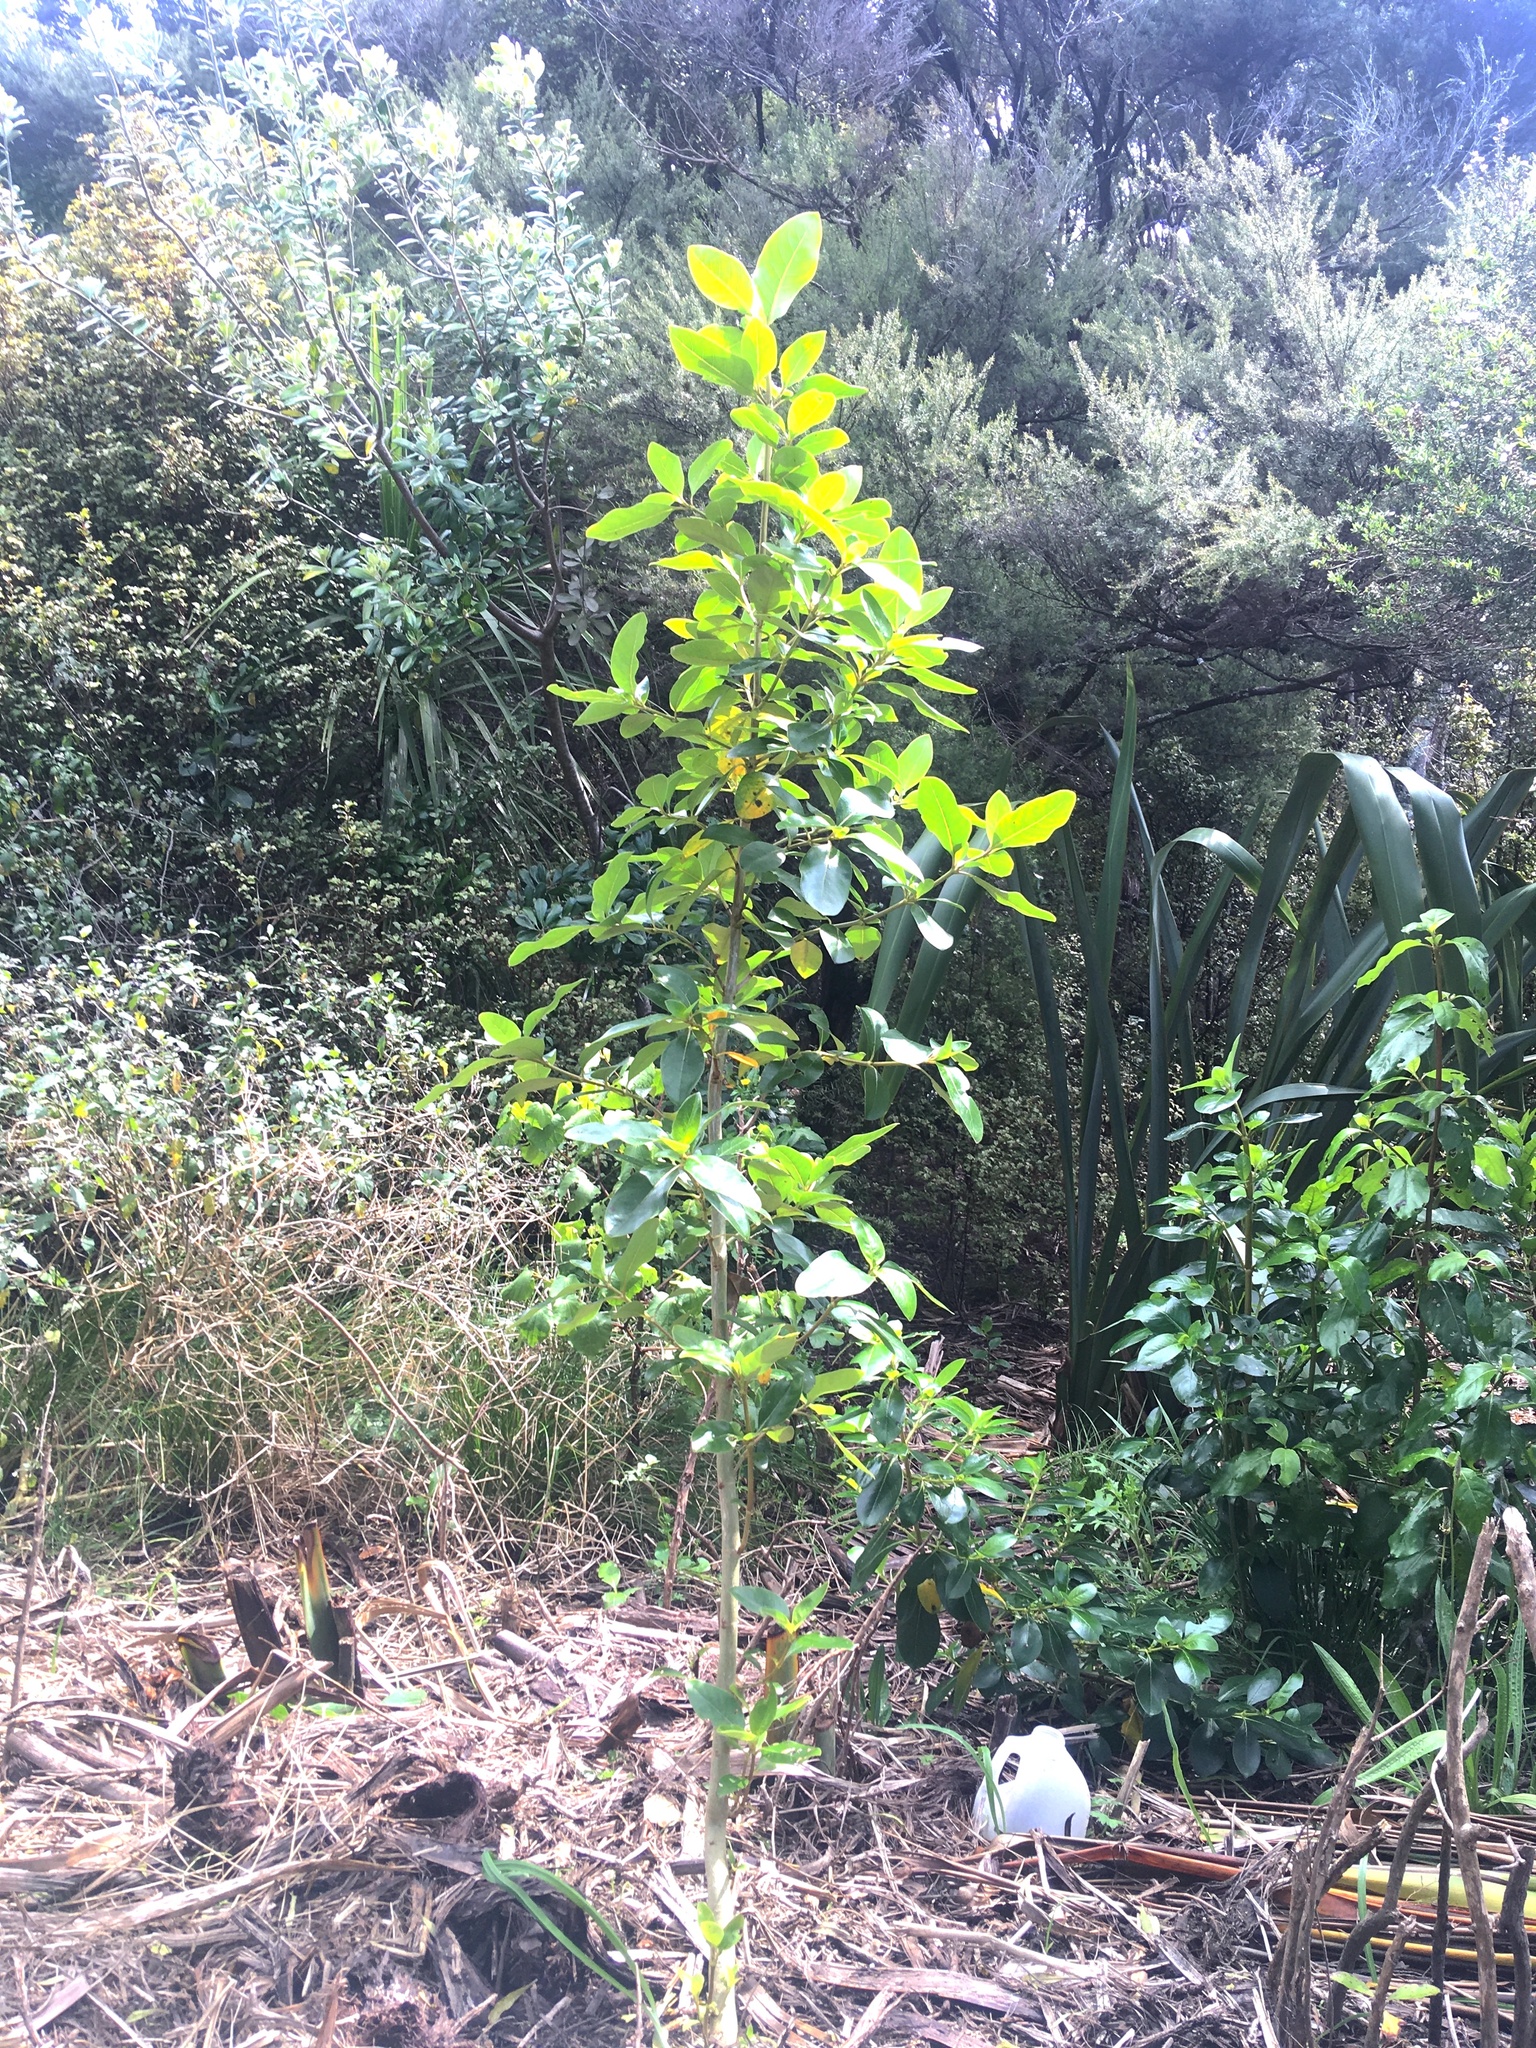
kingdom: Plantae
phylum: Tracheophyta
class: Magnoliopsida
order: Gentianales
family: Rubiaceae
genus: Coprosma
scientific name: Coprosma robusta
